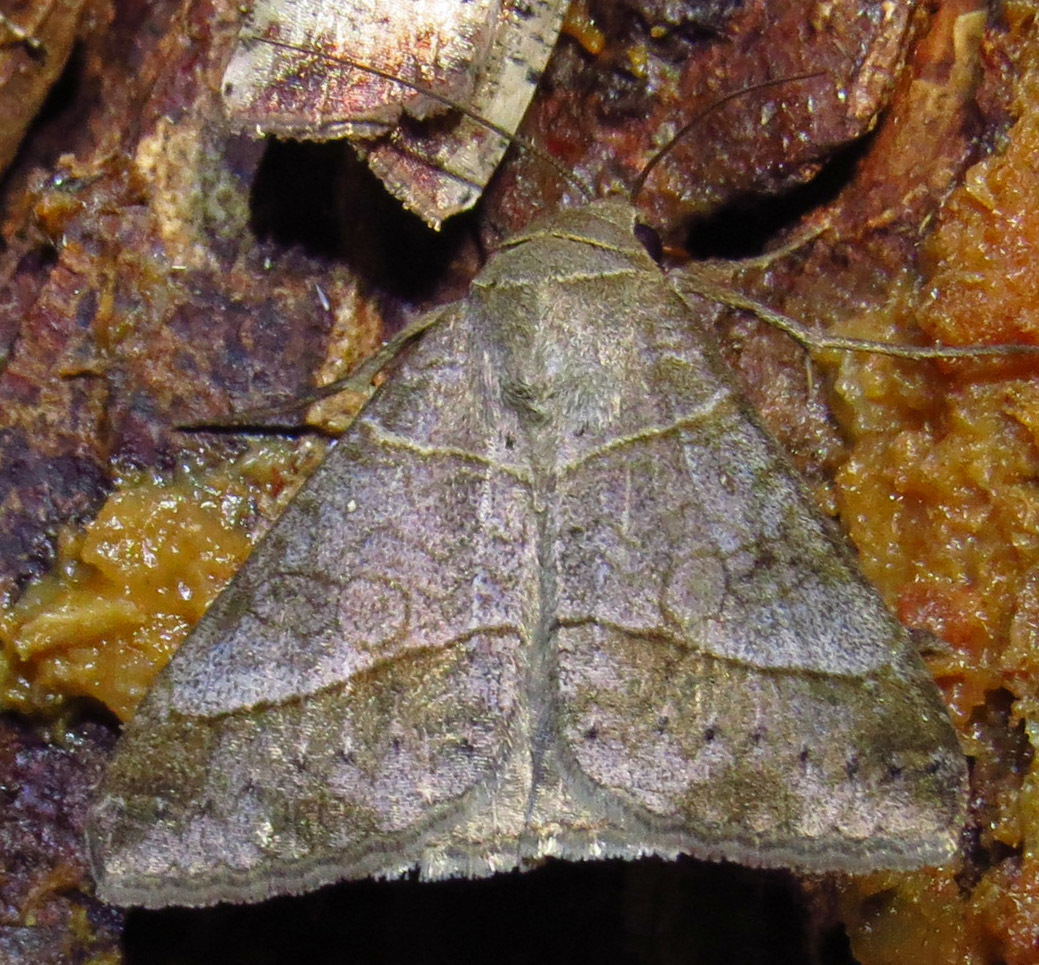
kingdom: Animalia
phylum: Arthropoda
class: Insecta
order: Lepidoptera
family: Erebidae
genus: Mocis
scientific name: Mocis texana
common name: Texas mocis moth
